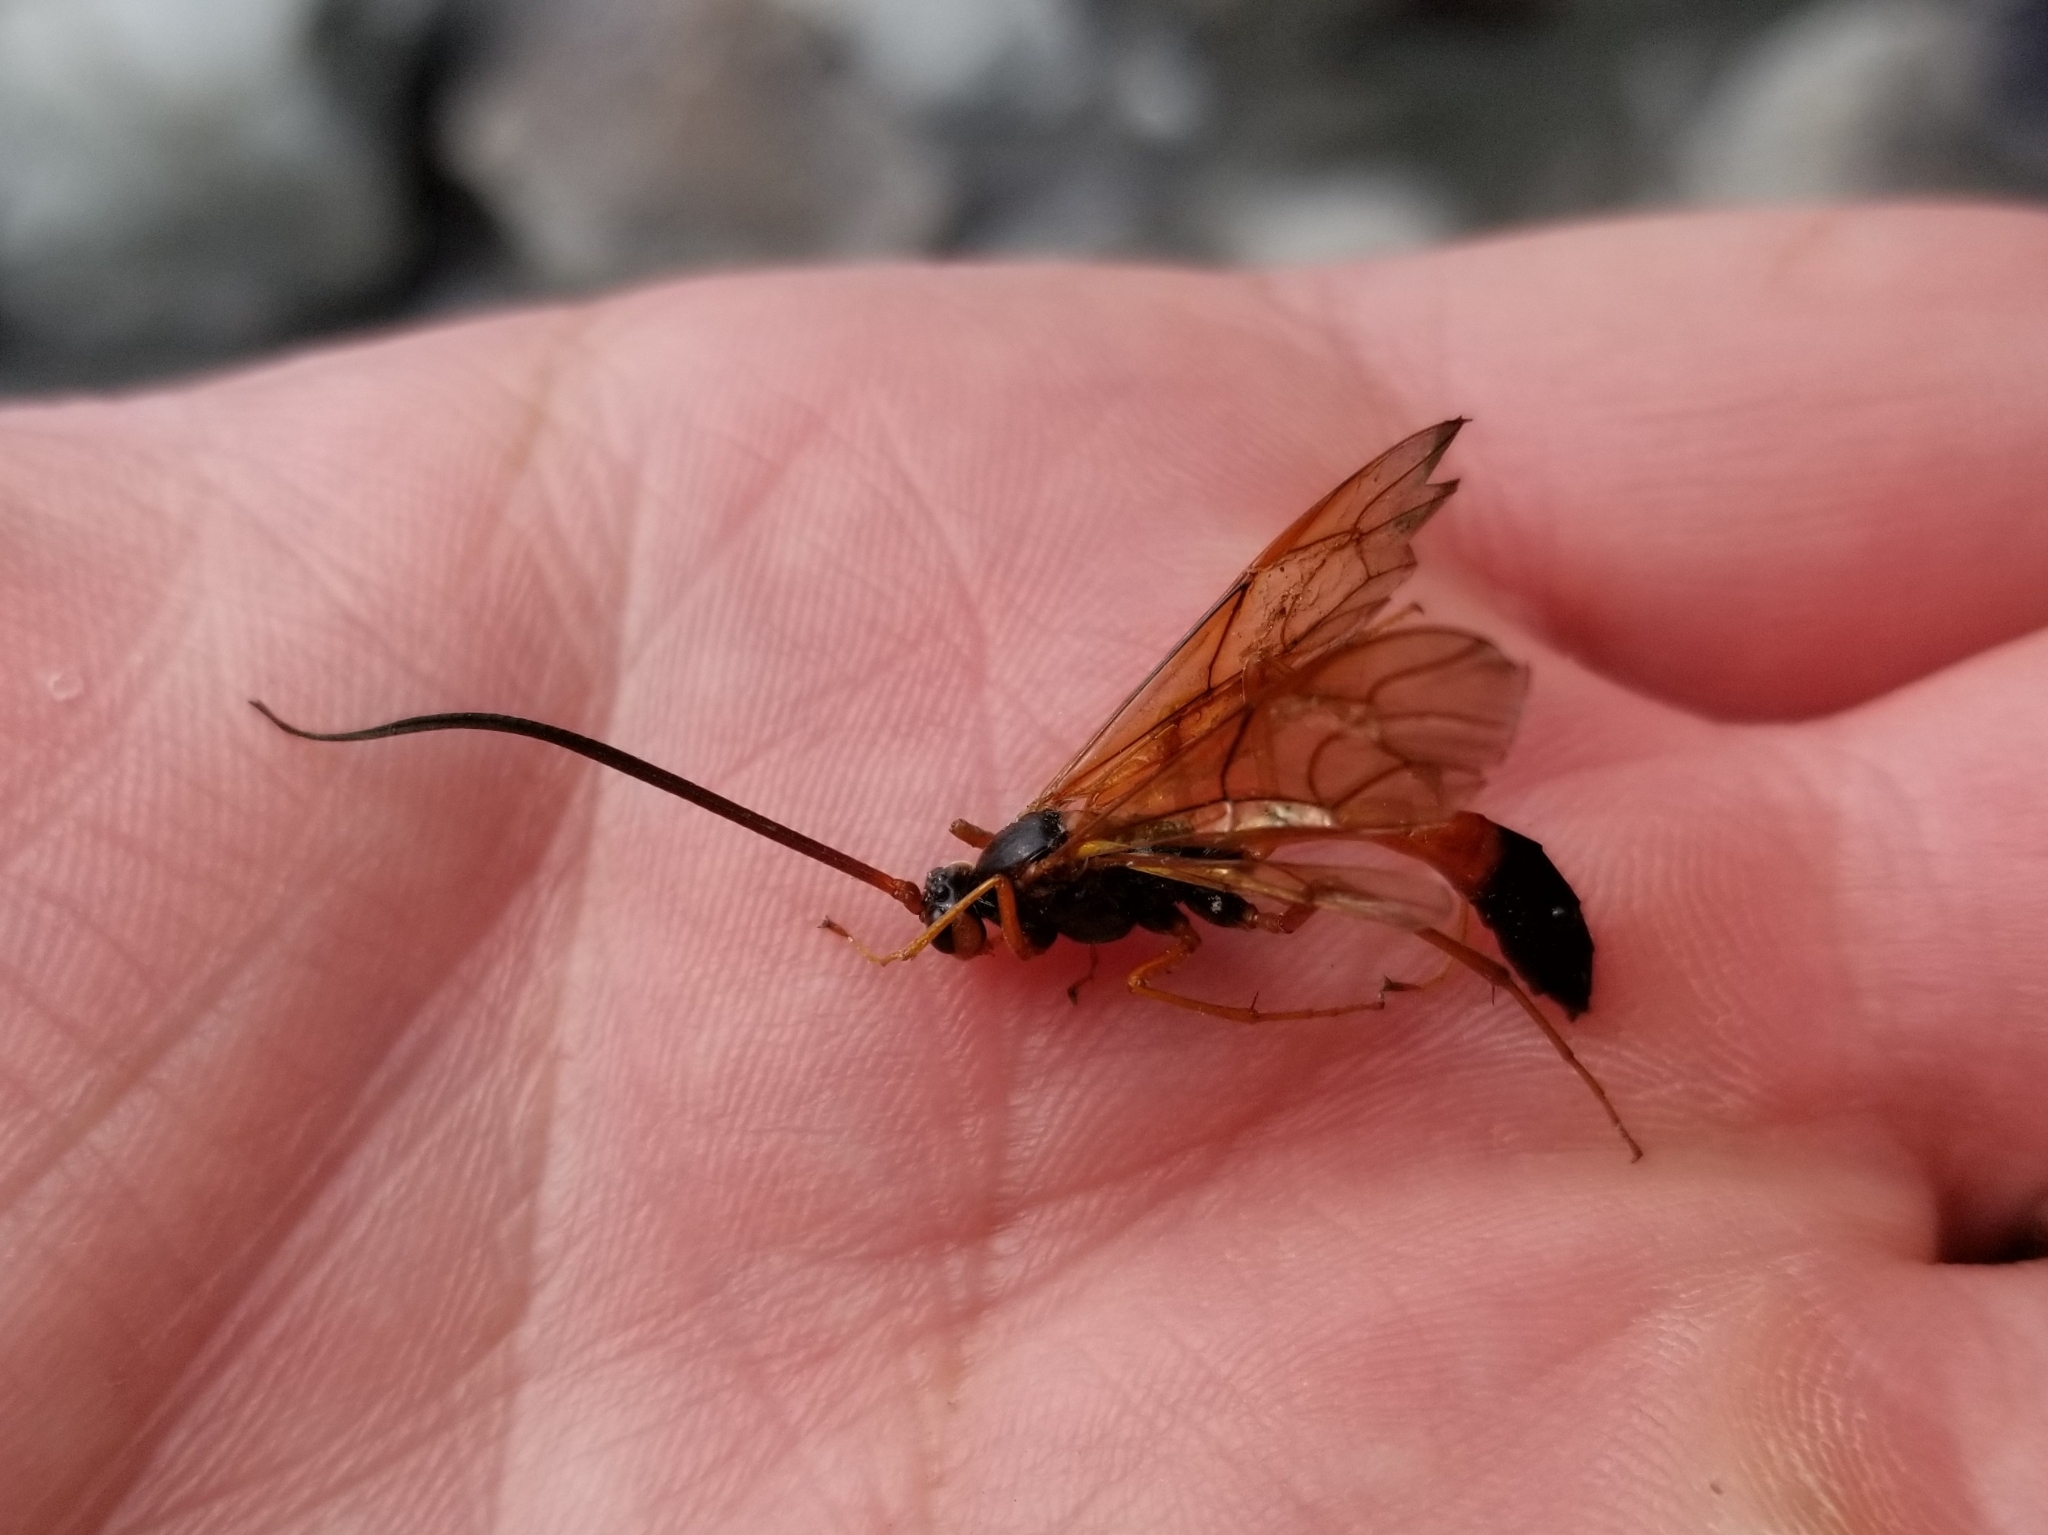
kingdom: Animalia
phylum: Arthropoda
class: Insecta
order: Hymenoptera
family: Ichneumonidae
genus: Opheltes
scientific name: Opheltes glaucopterus
